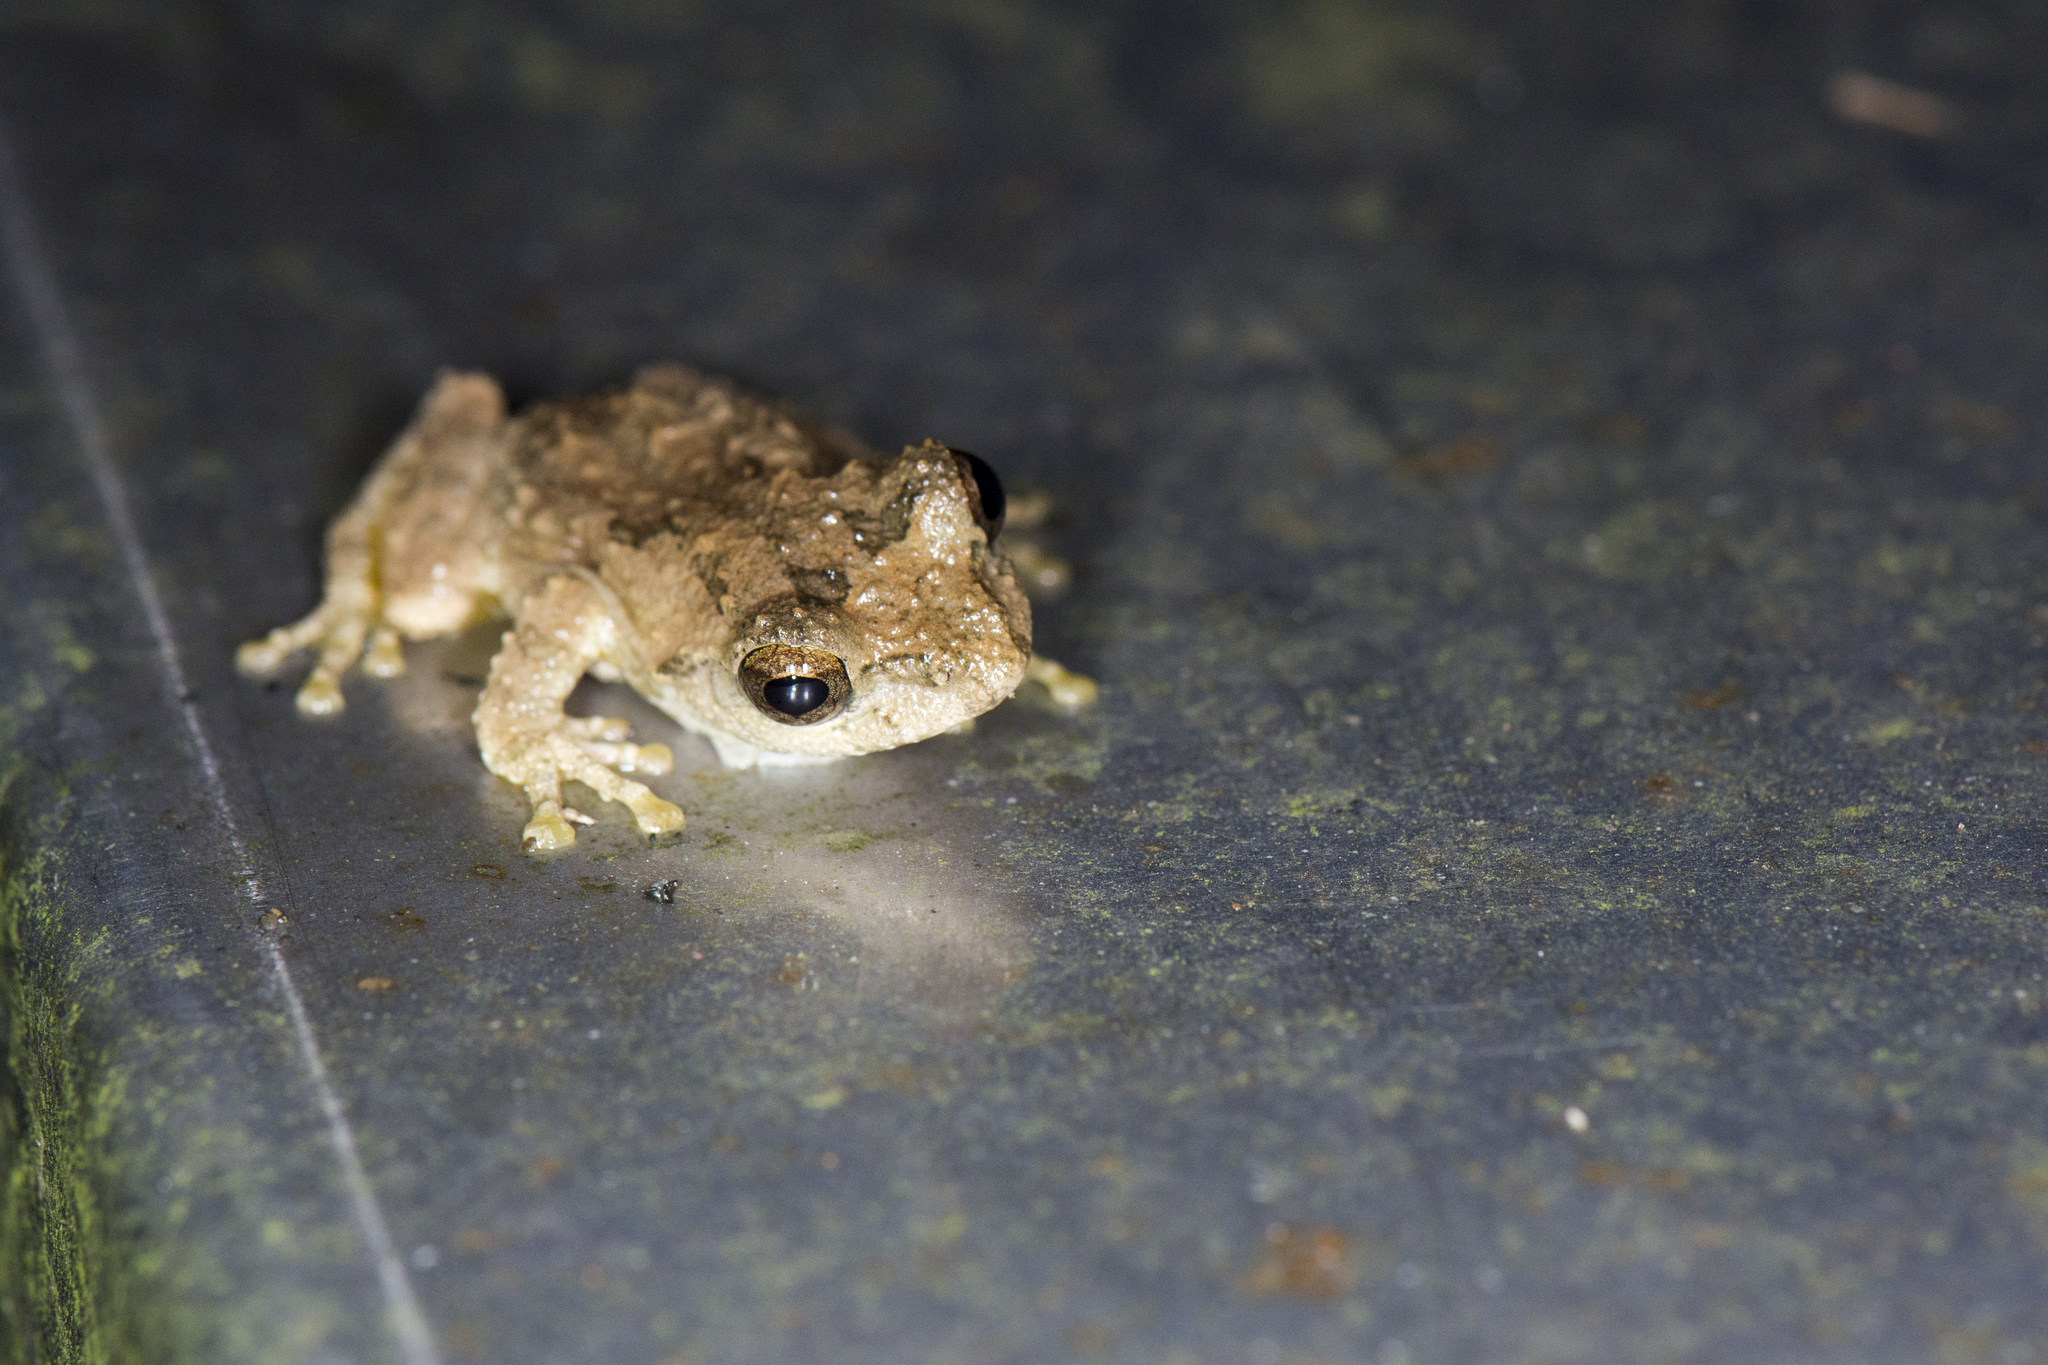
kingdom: Animalia
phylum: Chordata
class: Amphibia
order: Anura
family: Rhacophoridae
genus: Kurixalus
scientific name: Kurixalus idiootocus
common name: Temple treefrog
